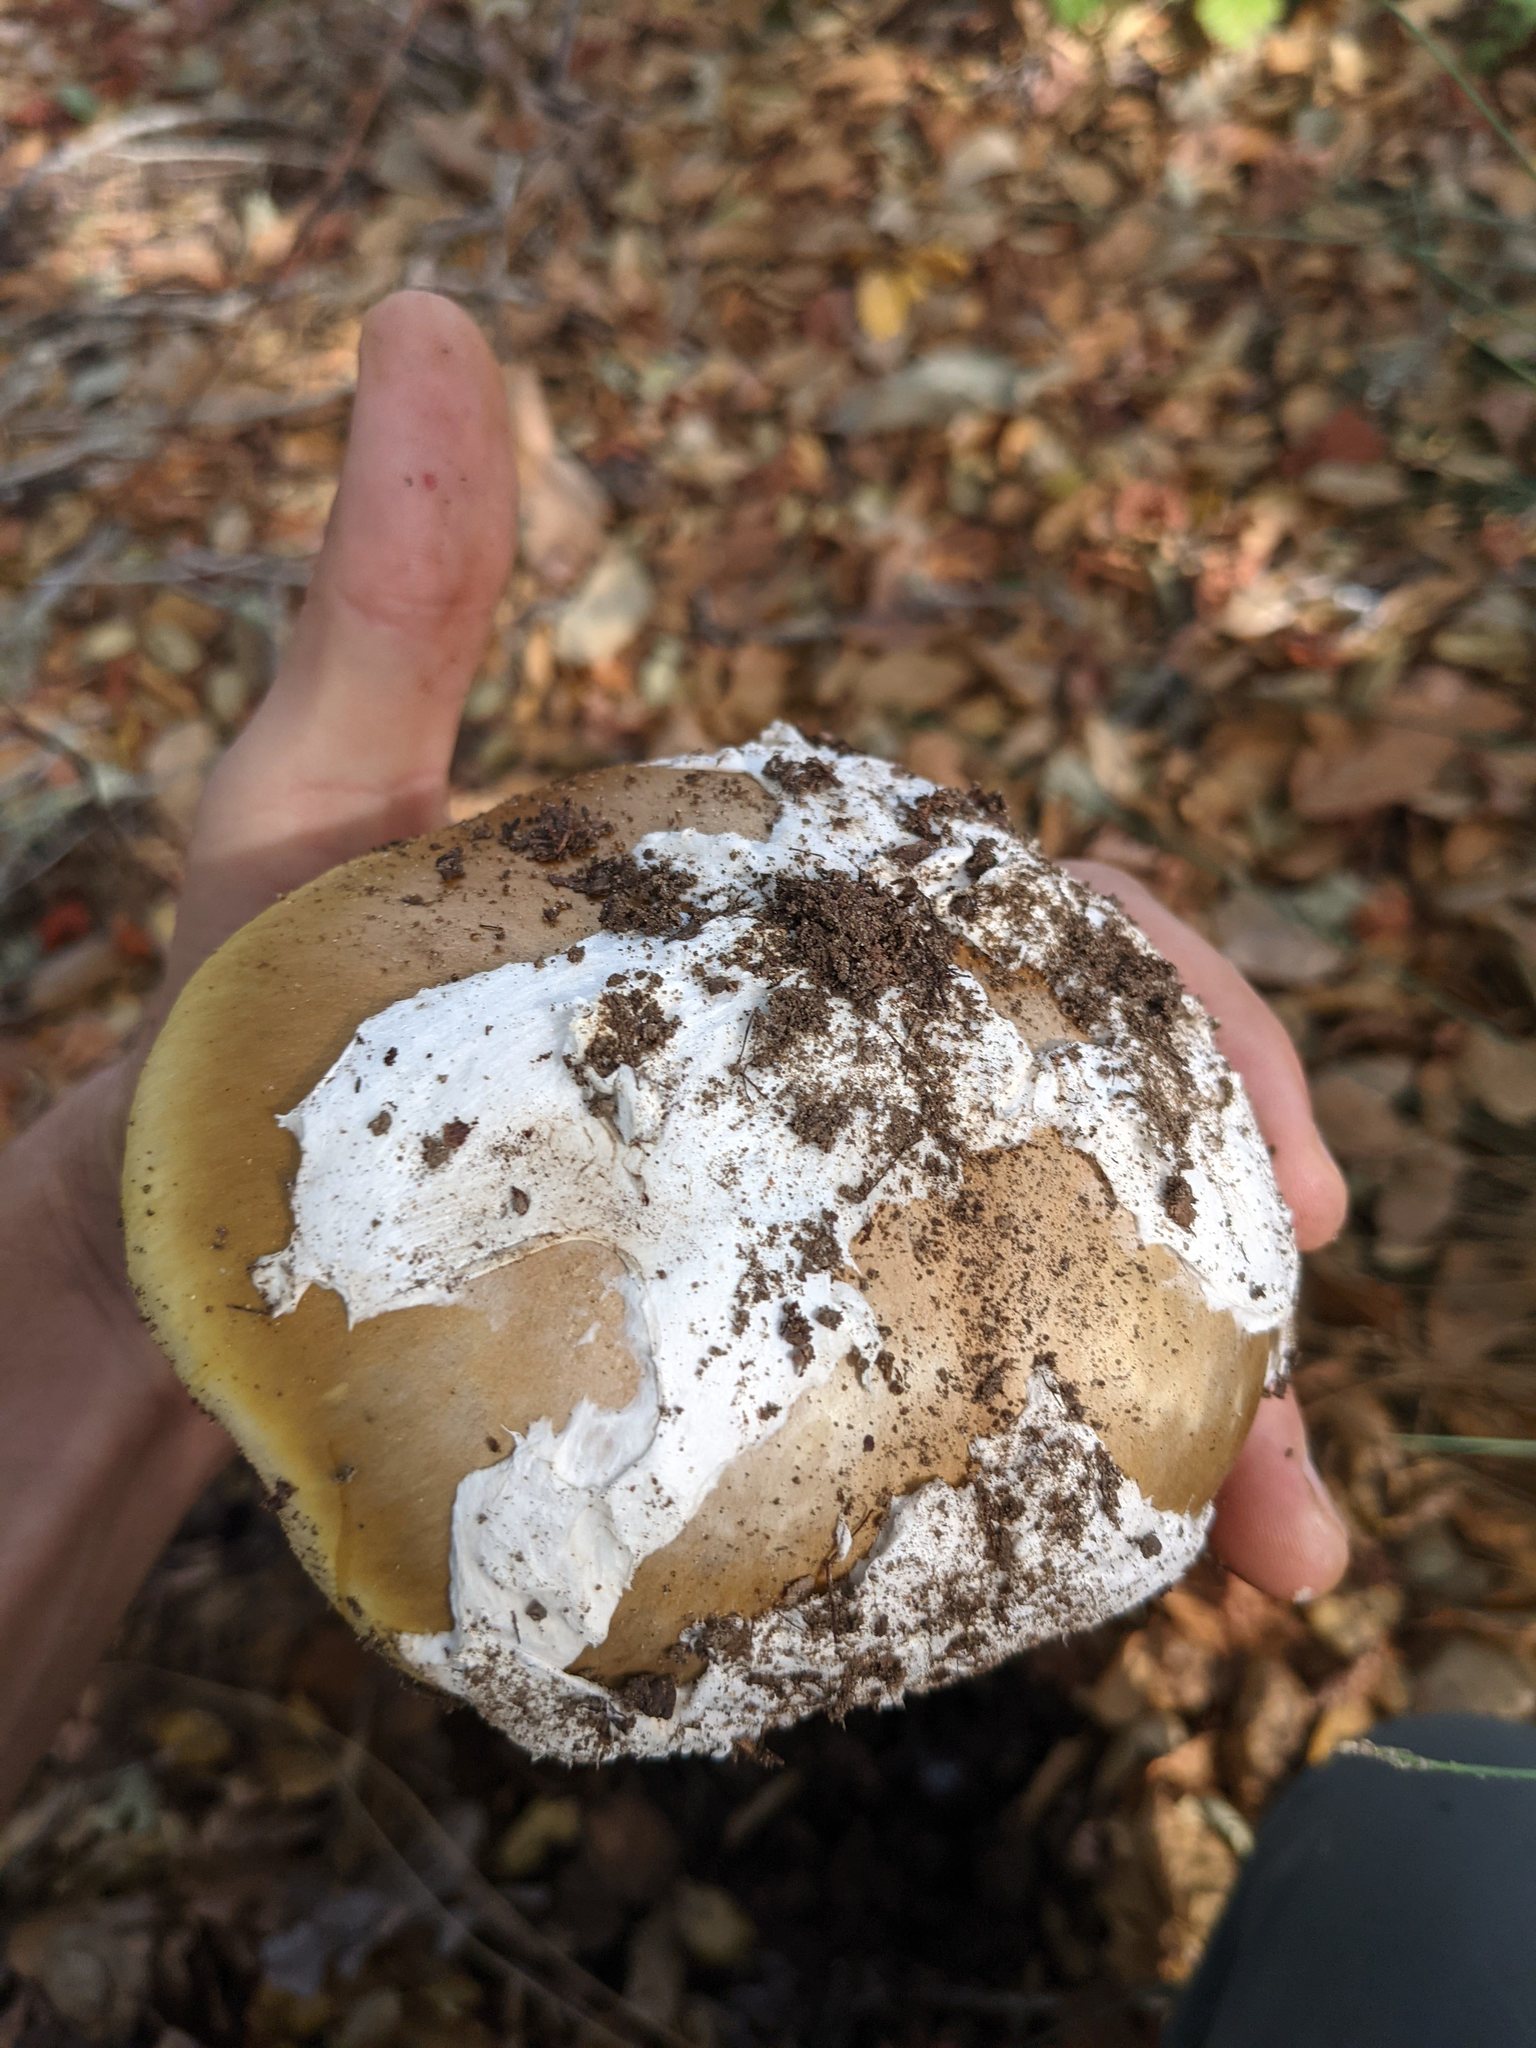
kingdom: Fungi
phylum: Basidiomycota
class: Agaricomycetes
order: Agaricales
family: Amanitaceae
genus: Amanita
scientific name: Amanita calyptroderma
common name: Coccora
